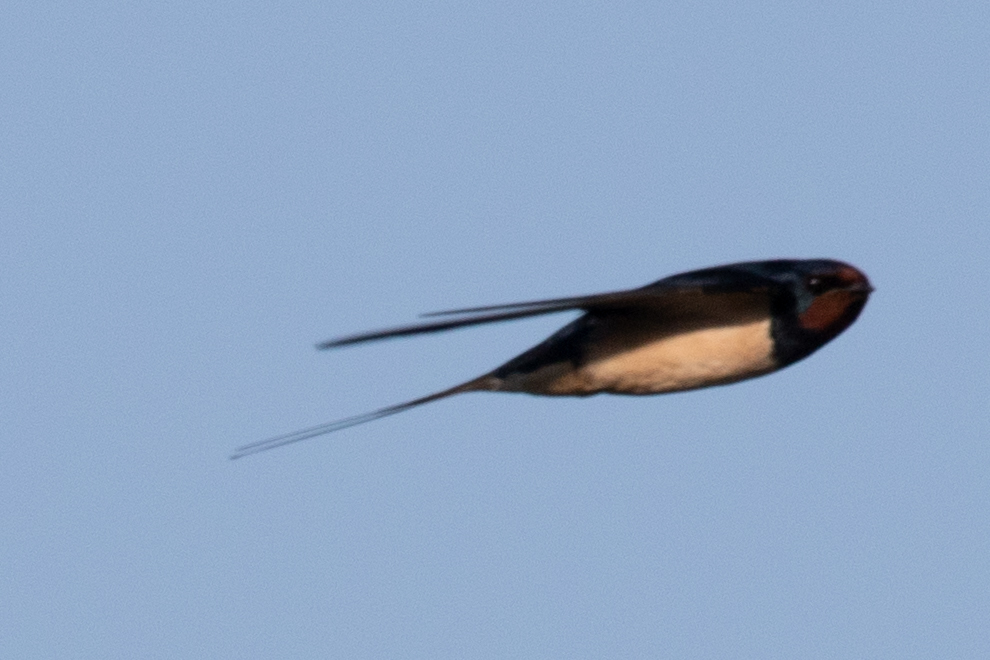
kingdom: Animalia
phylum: Chordata
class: Aves
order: Passeriformes
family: Hirundinidae
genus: Hirundo
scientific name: Hirundo rustica
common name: Barn swallow
